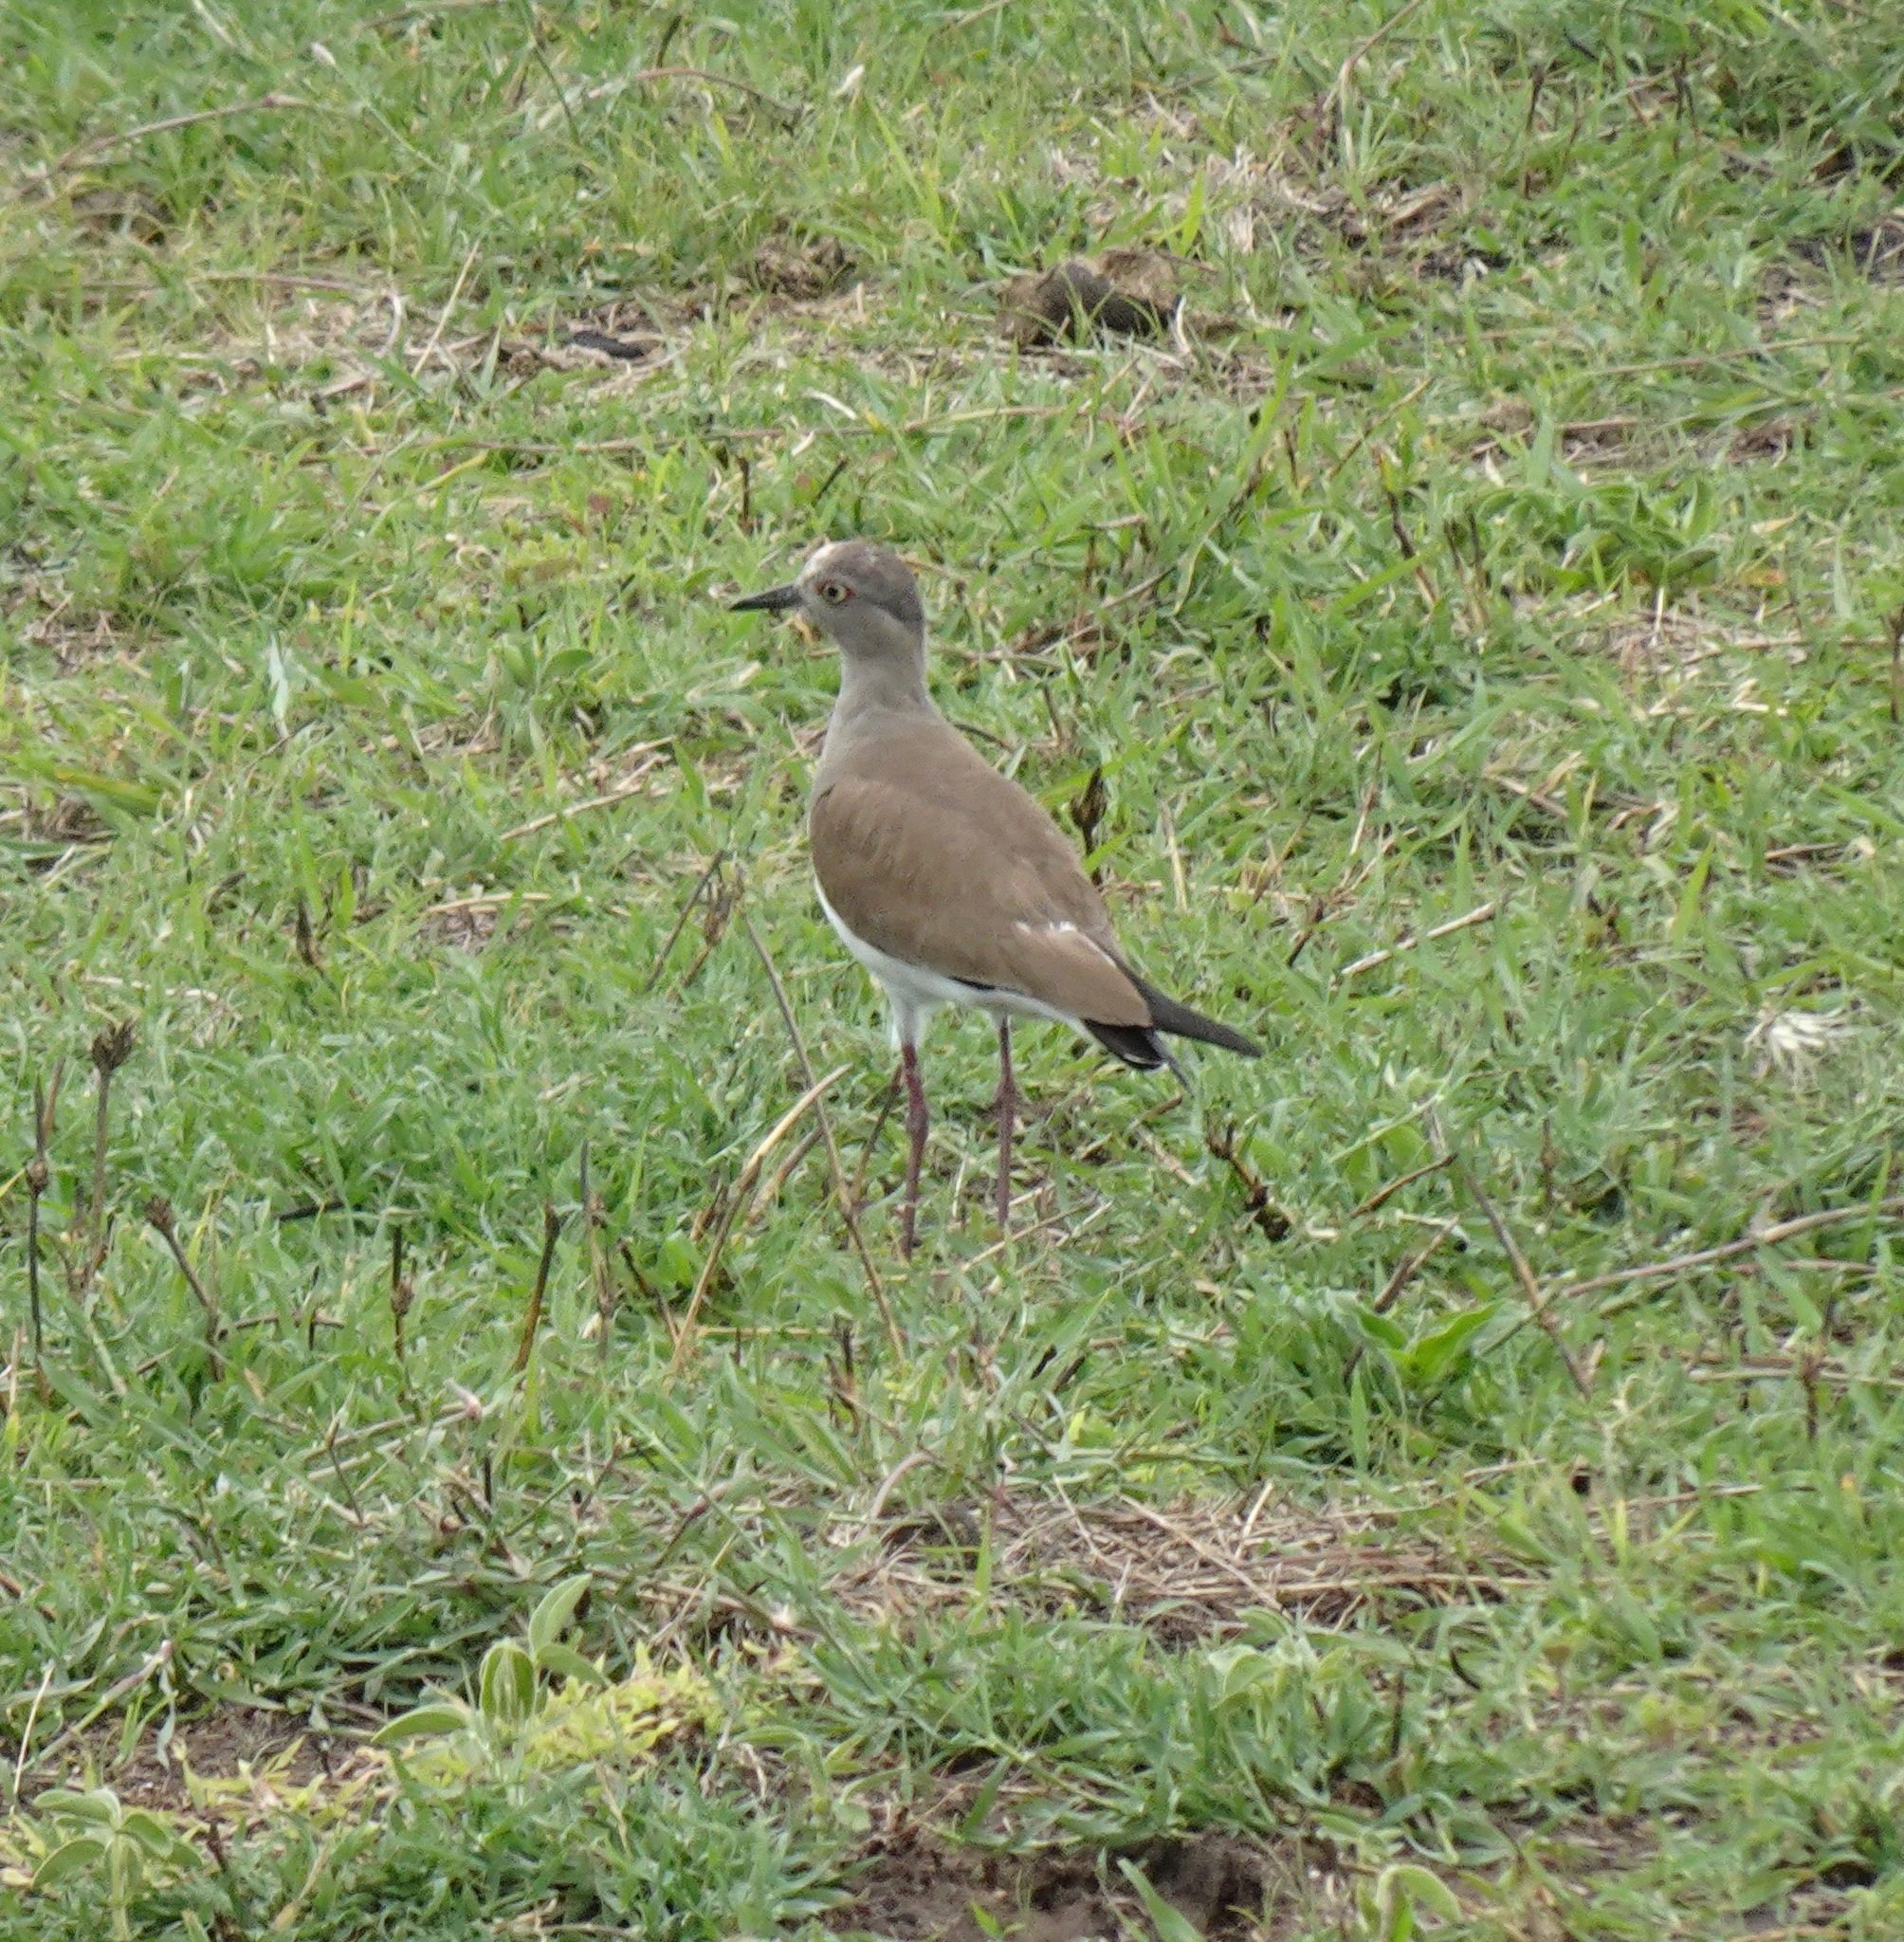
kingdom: Animalia
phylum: Chordata
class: Aves
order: Charadriiformes
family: Charadriidae
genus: Vanellus
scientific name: Vanellus melanopterus
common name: Black-winged lapwing
